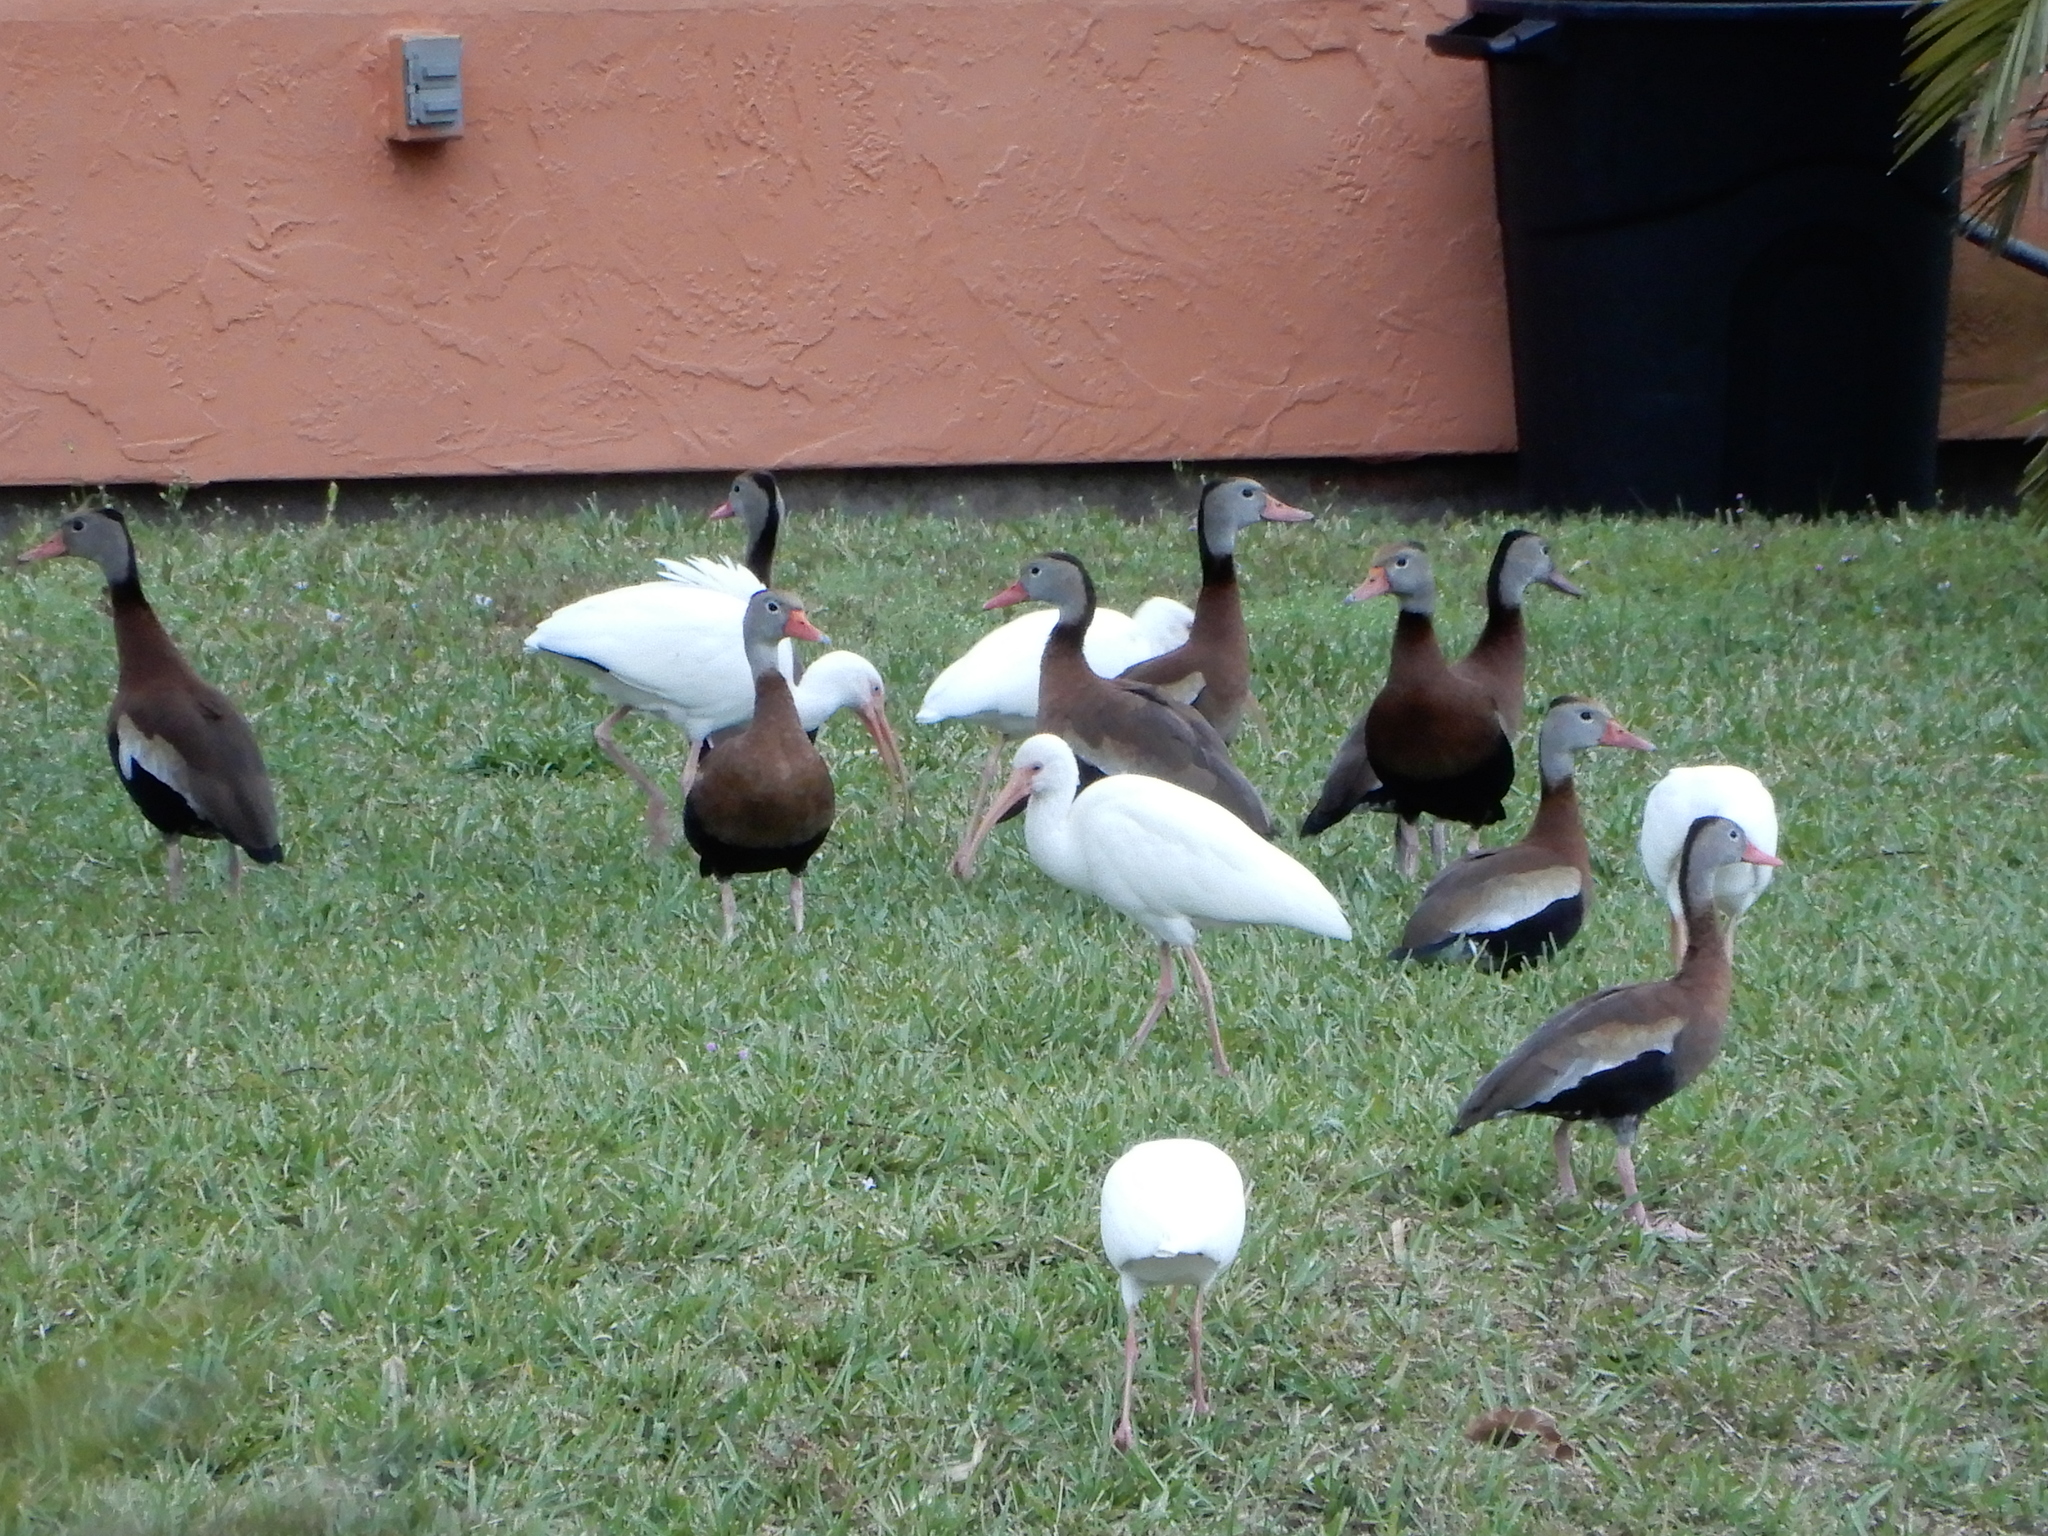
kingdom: Animalia
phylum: Chordata
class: Aves
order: Pelecaniformes
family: Threskiornithidae
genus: Eudocimus
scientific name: Eudocimus albus
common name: White ibis
